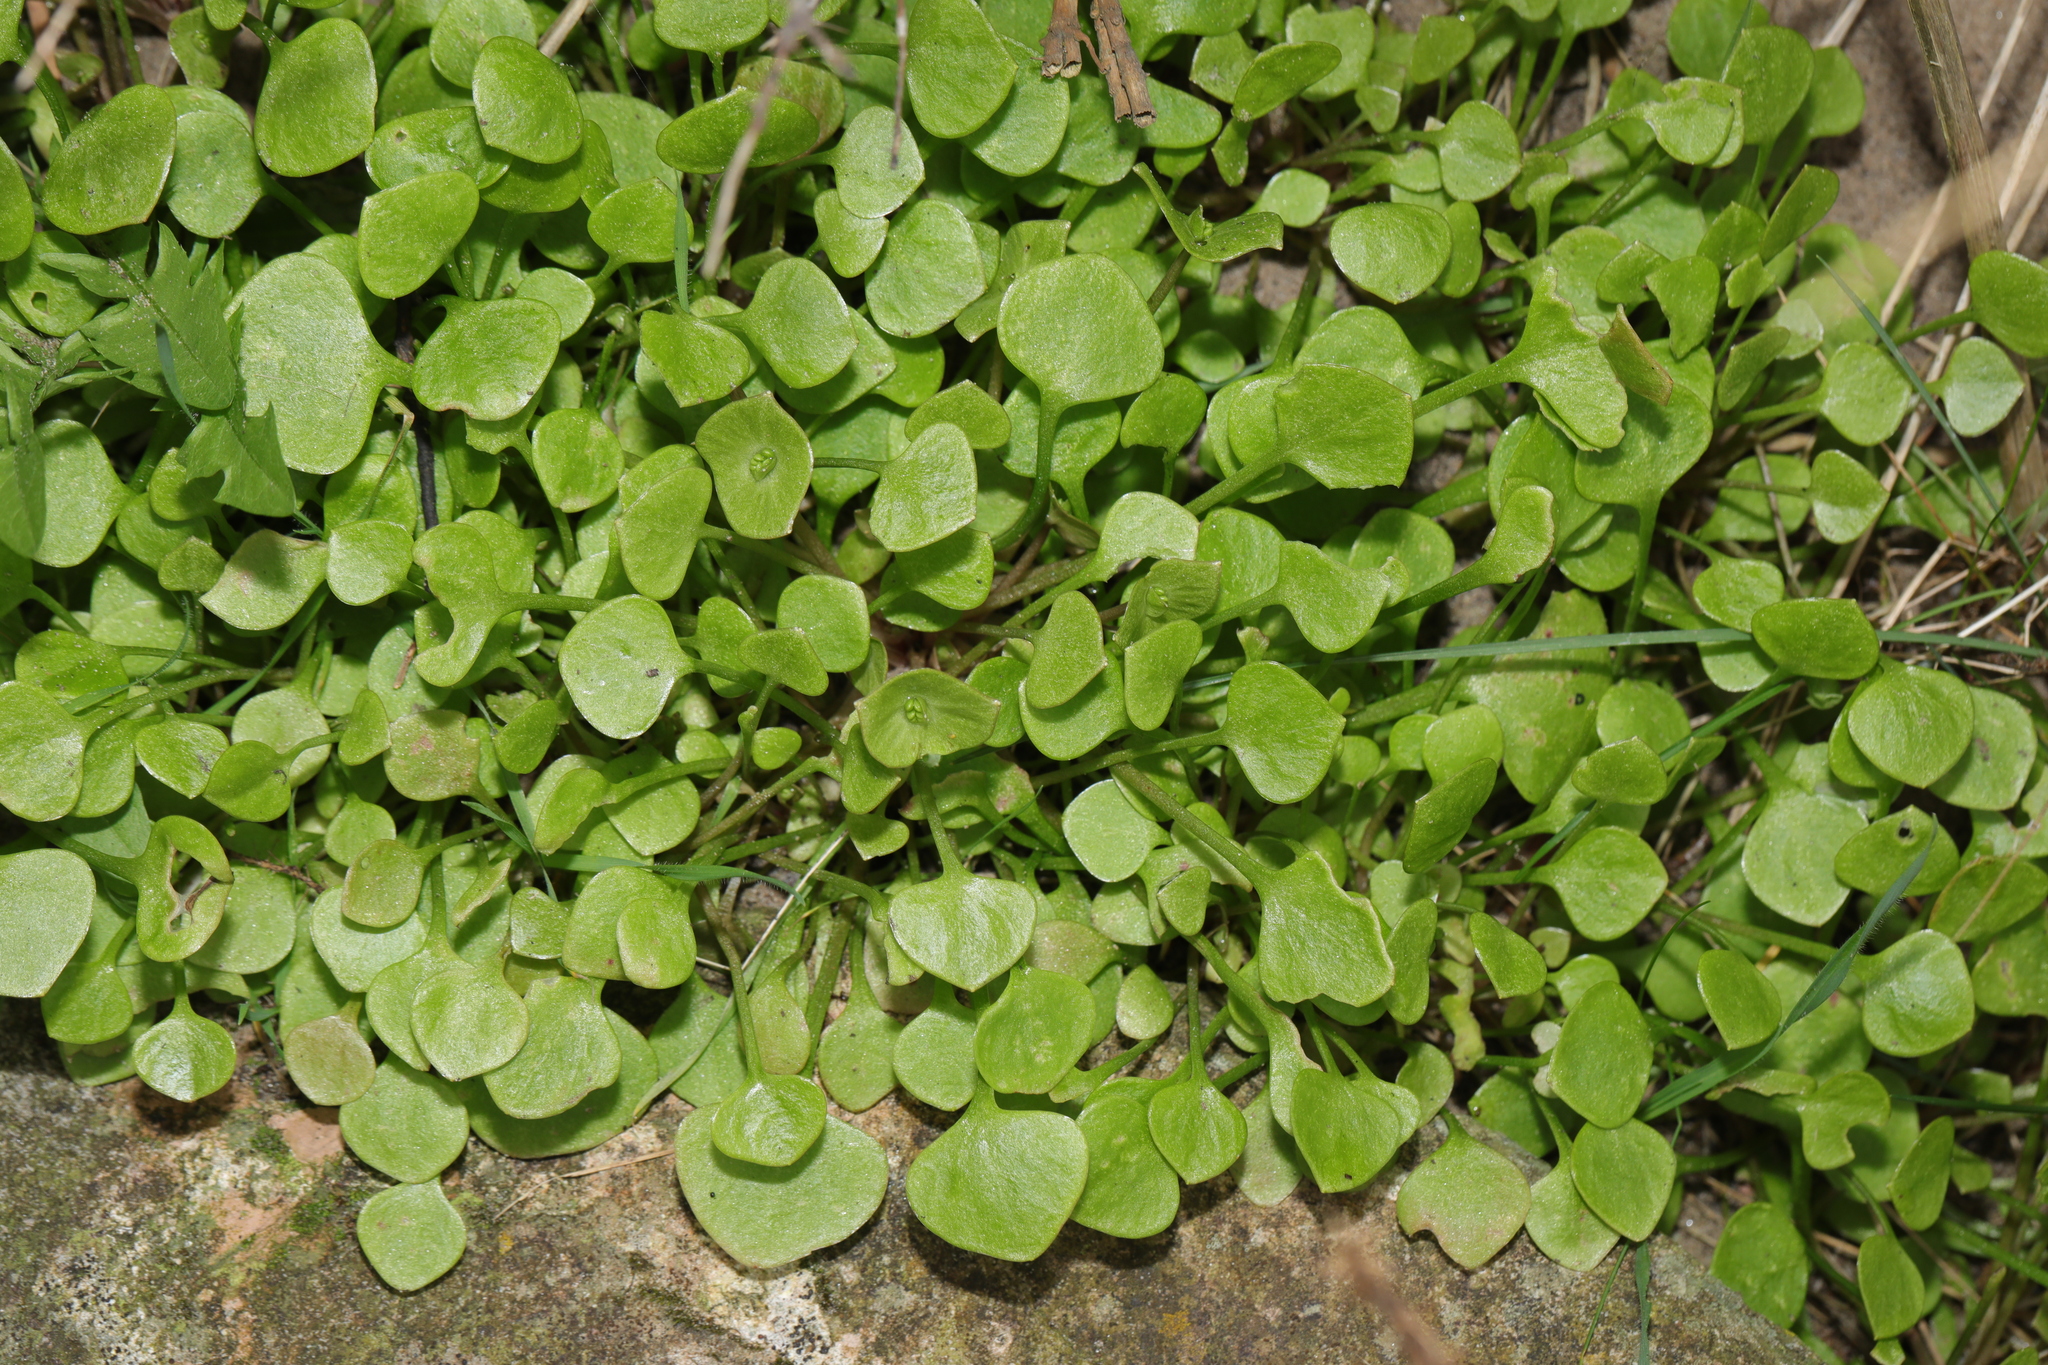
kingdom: Plantae
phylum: Tracheophyta
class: Magnoliopsida
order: Caryophyllales
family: Montiaceae
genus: Claytonia
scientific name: Claytonia perfoliata
